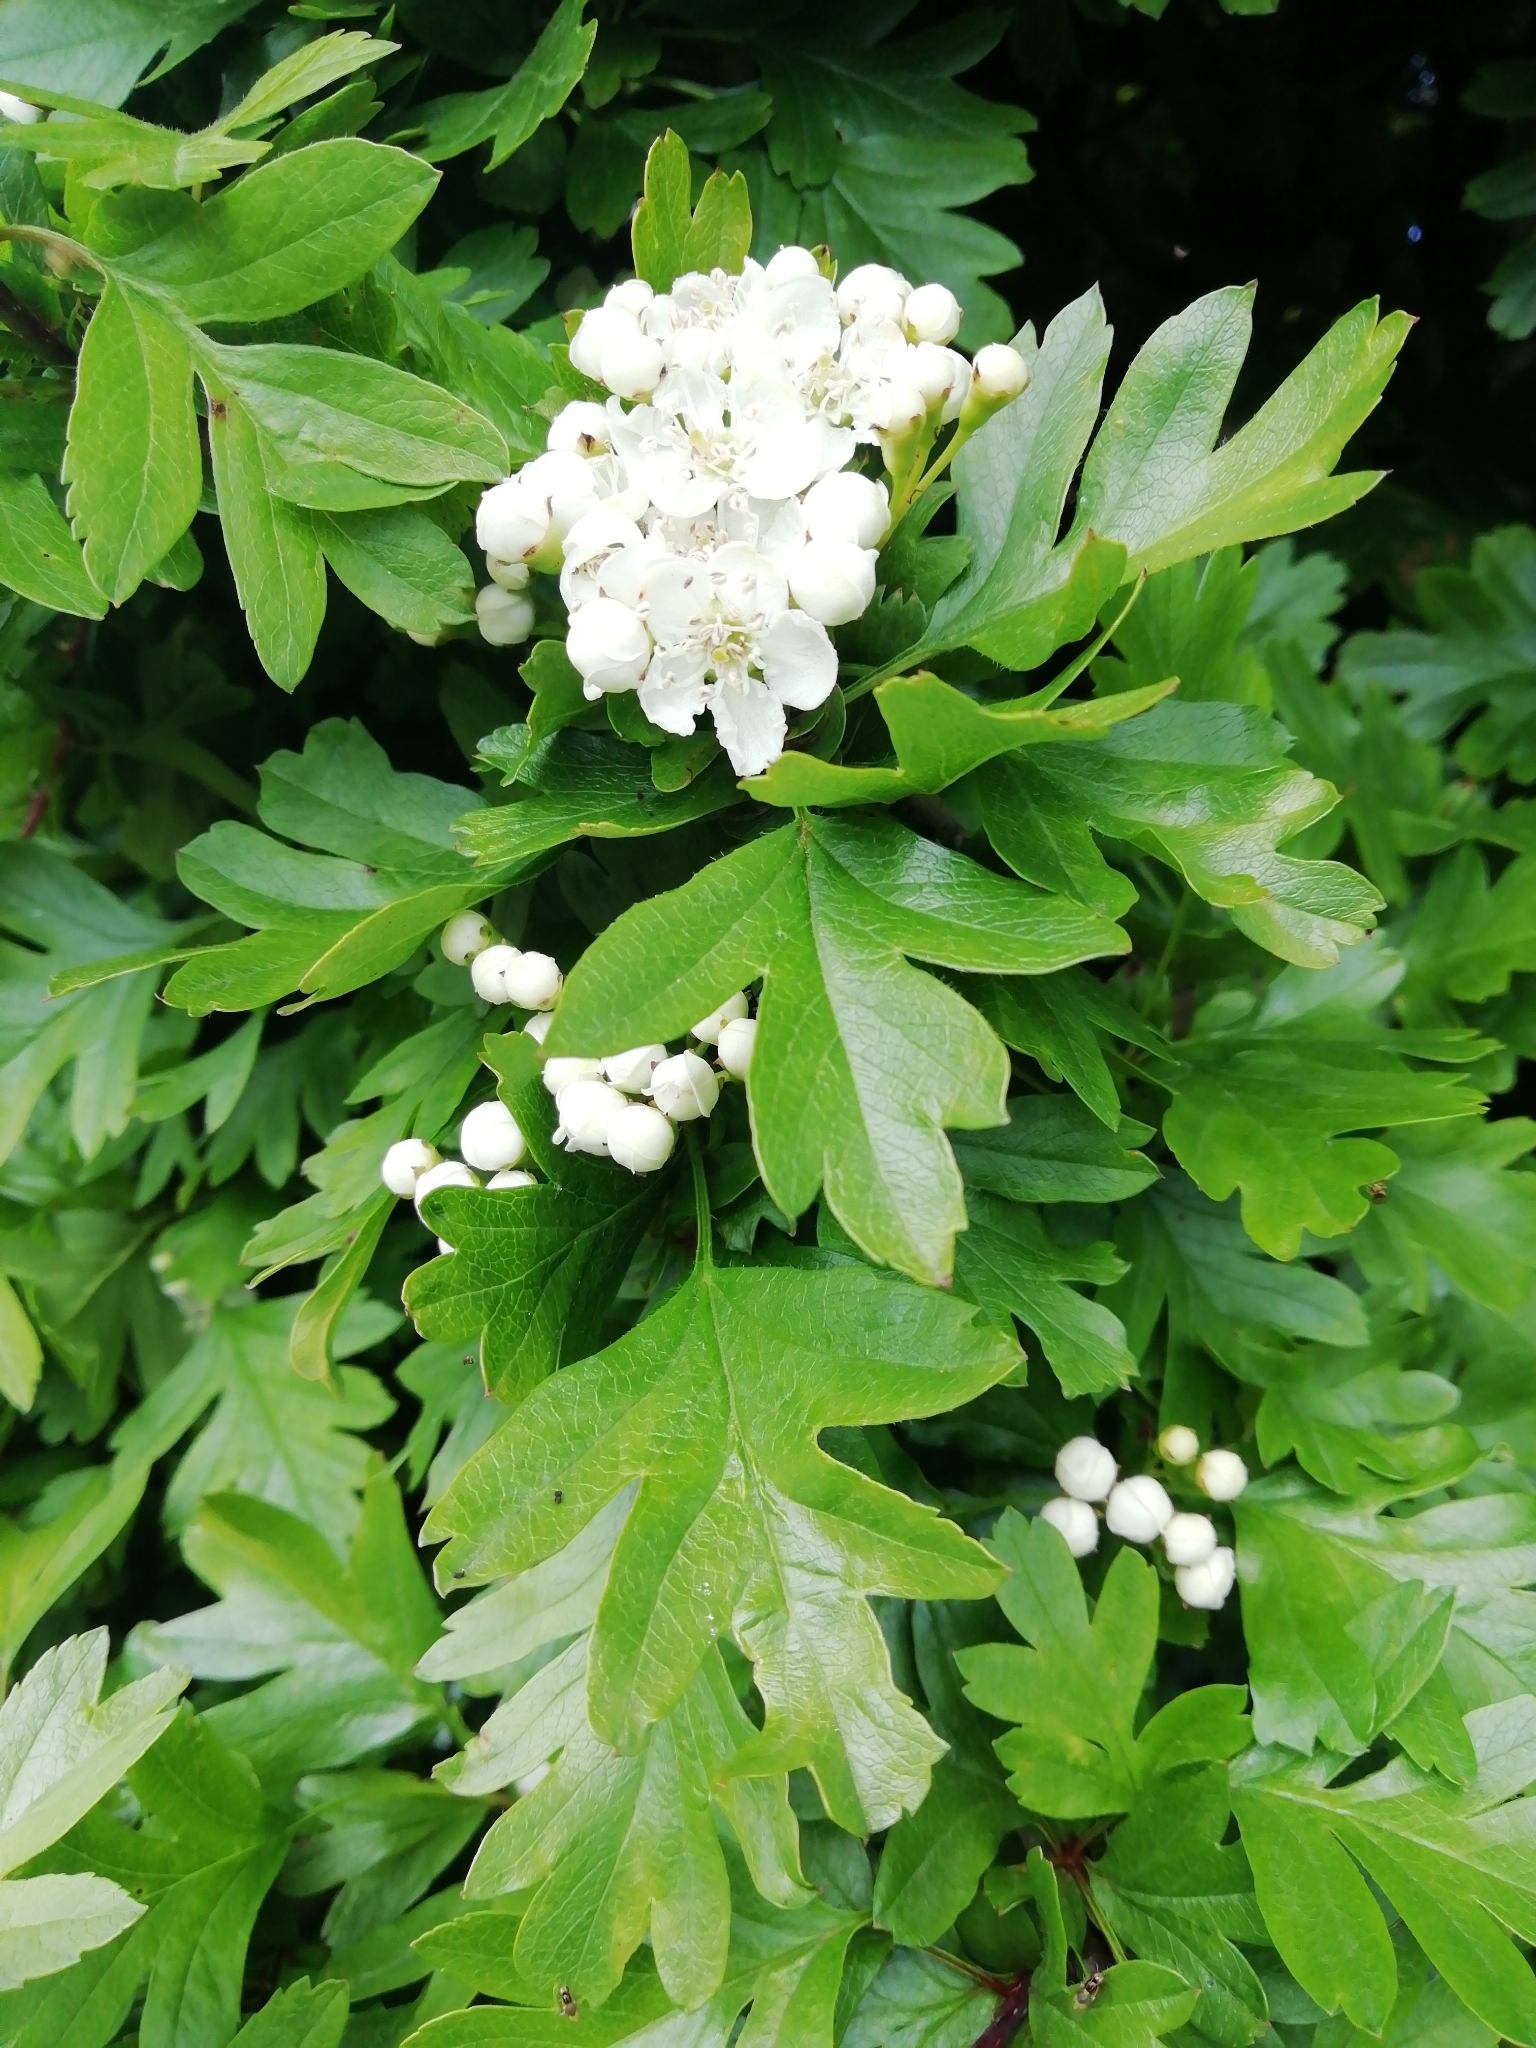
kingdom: Plantae
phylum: Tracheophyta
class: Magnoliopsida
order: Rosales
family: Rosaceae
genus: Crataegus
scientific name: Crataegus monogyna
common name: Hawthorn
